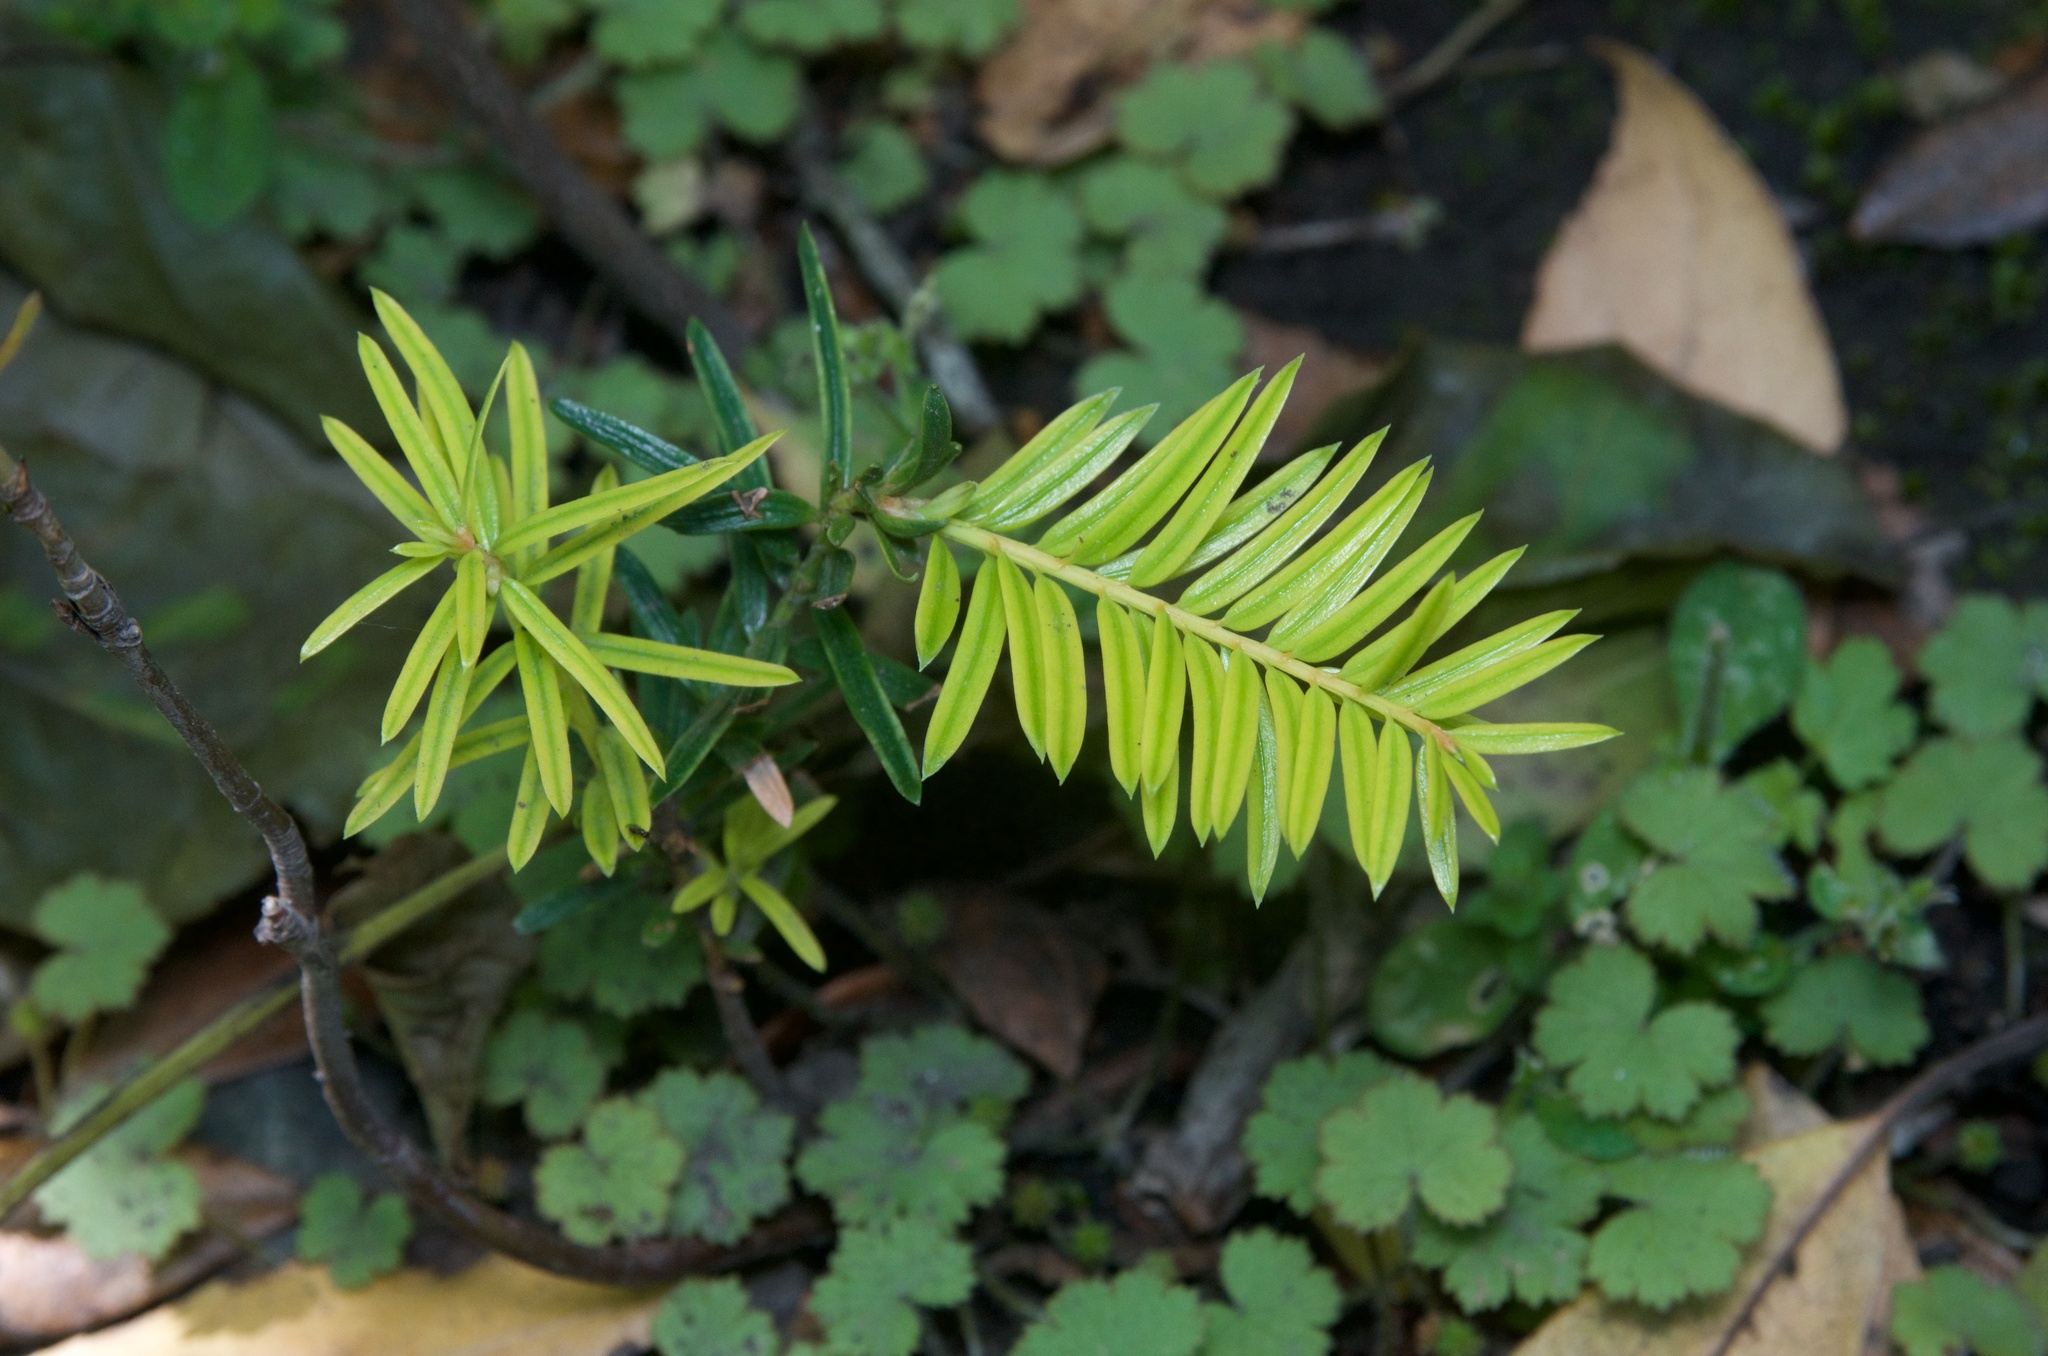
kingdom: Plantae
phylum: Tracheophyta
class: Pinopsida
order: Pinales
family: Taxaceae
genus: Taxus
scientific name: Taxus baccata
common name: Yew
